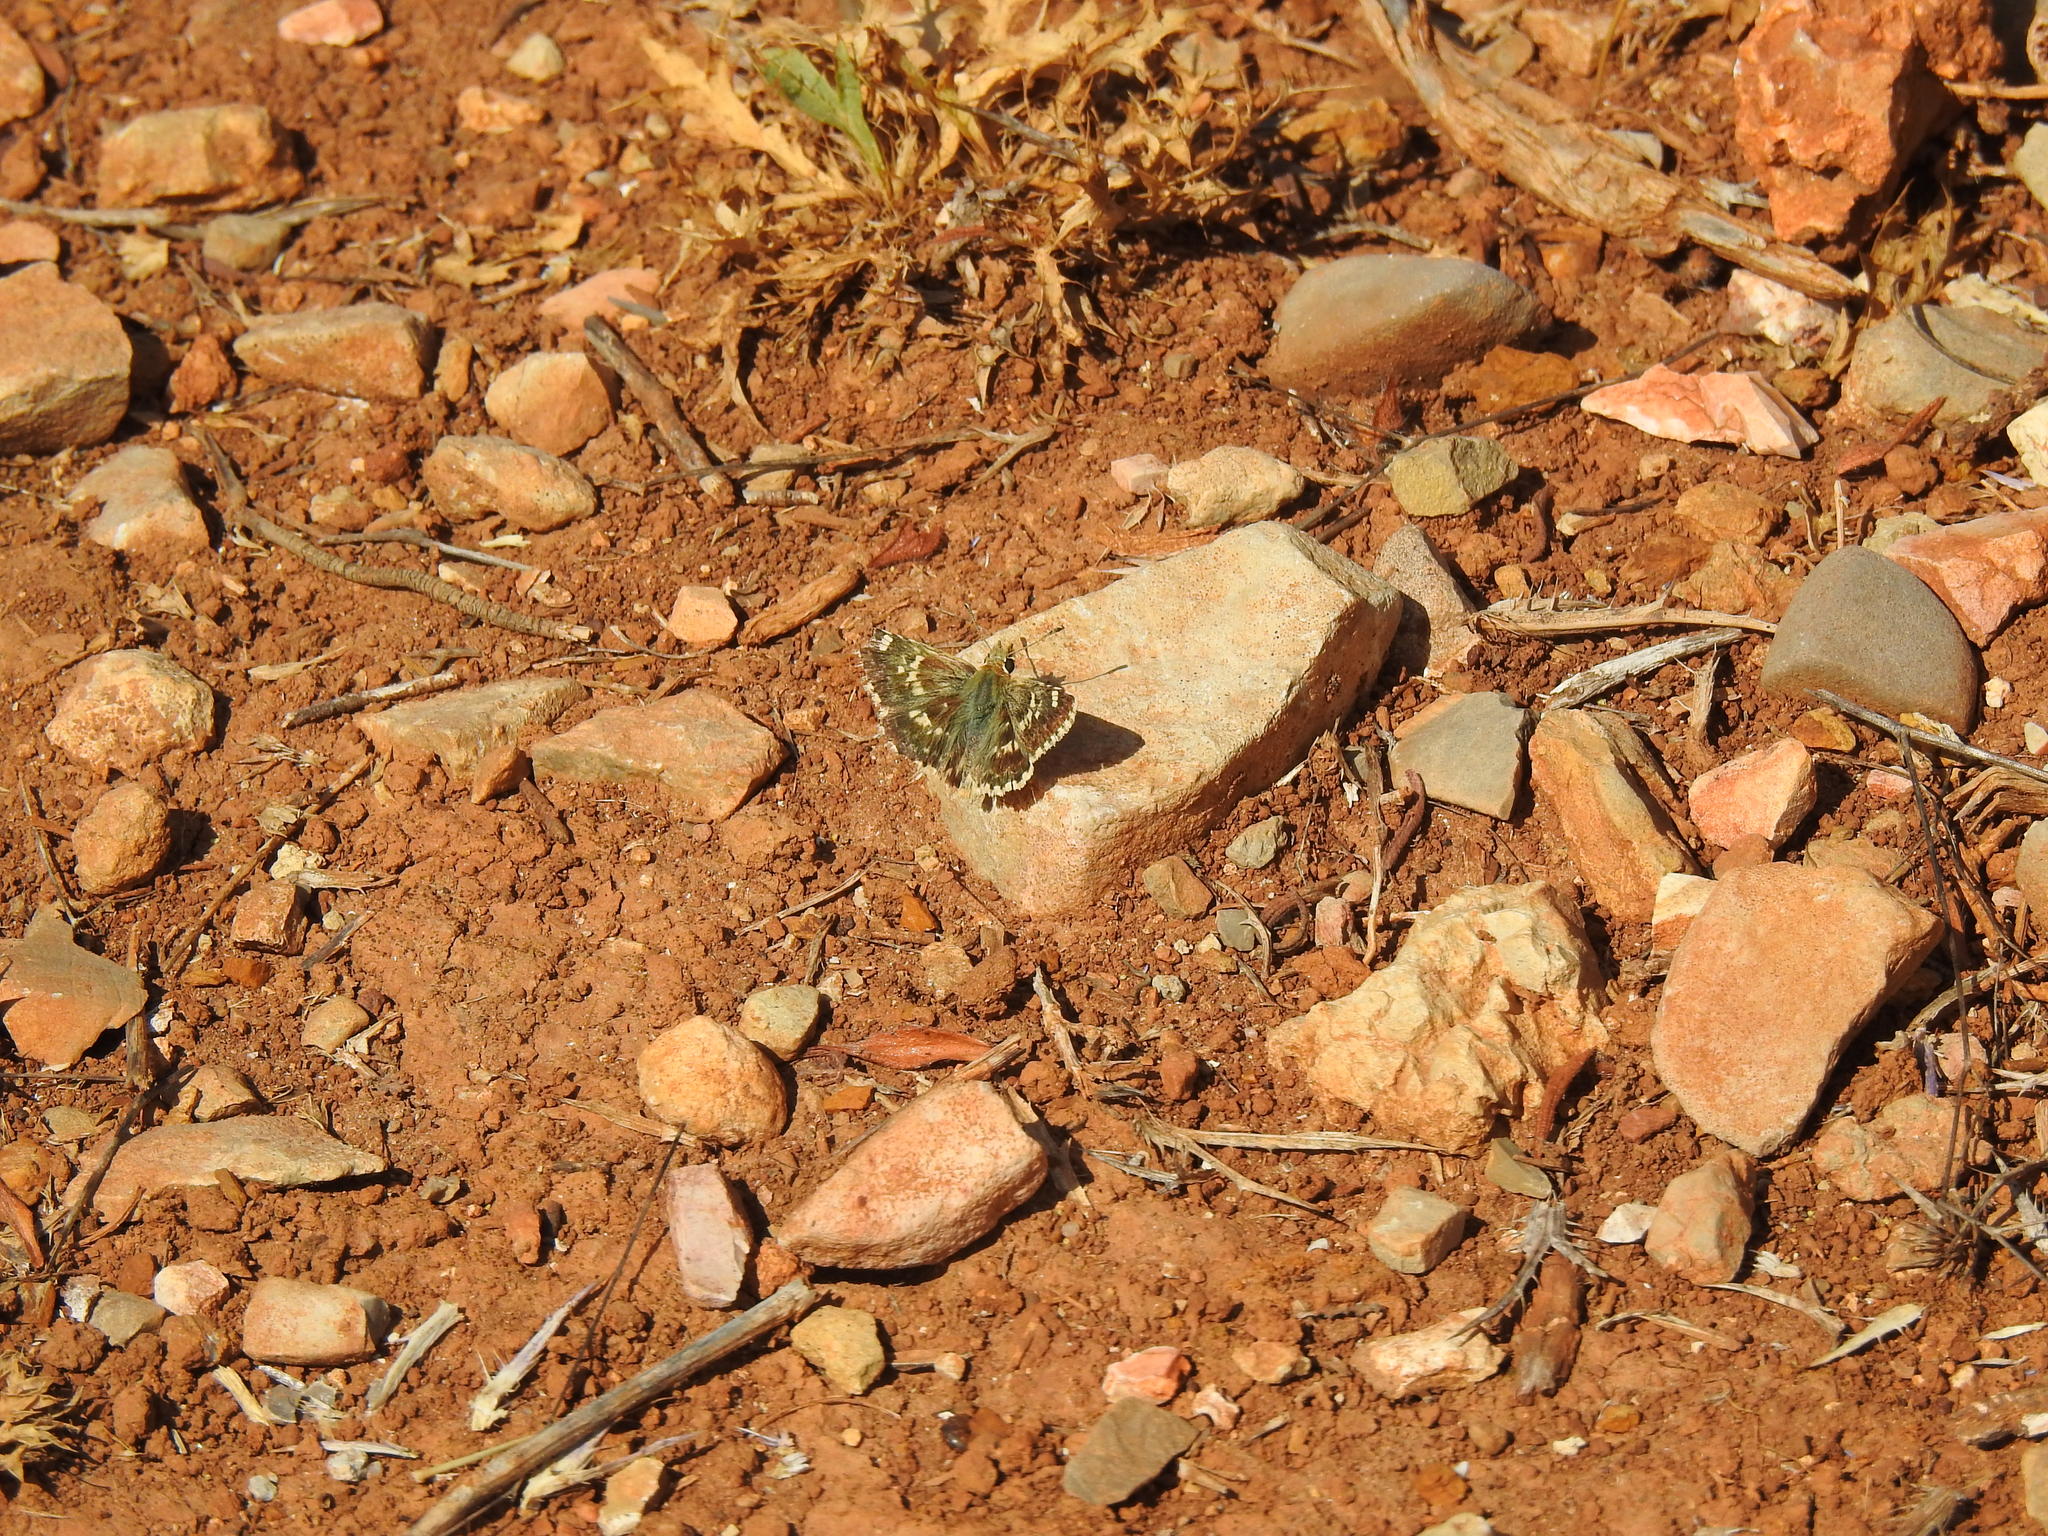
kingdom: Animalia
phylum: Arthropoda
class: Insecta
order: Lepidoptera
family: Hesperiidae
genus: Syrichtus
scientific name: Syrichtus Muschampia proto
